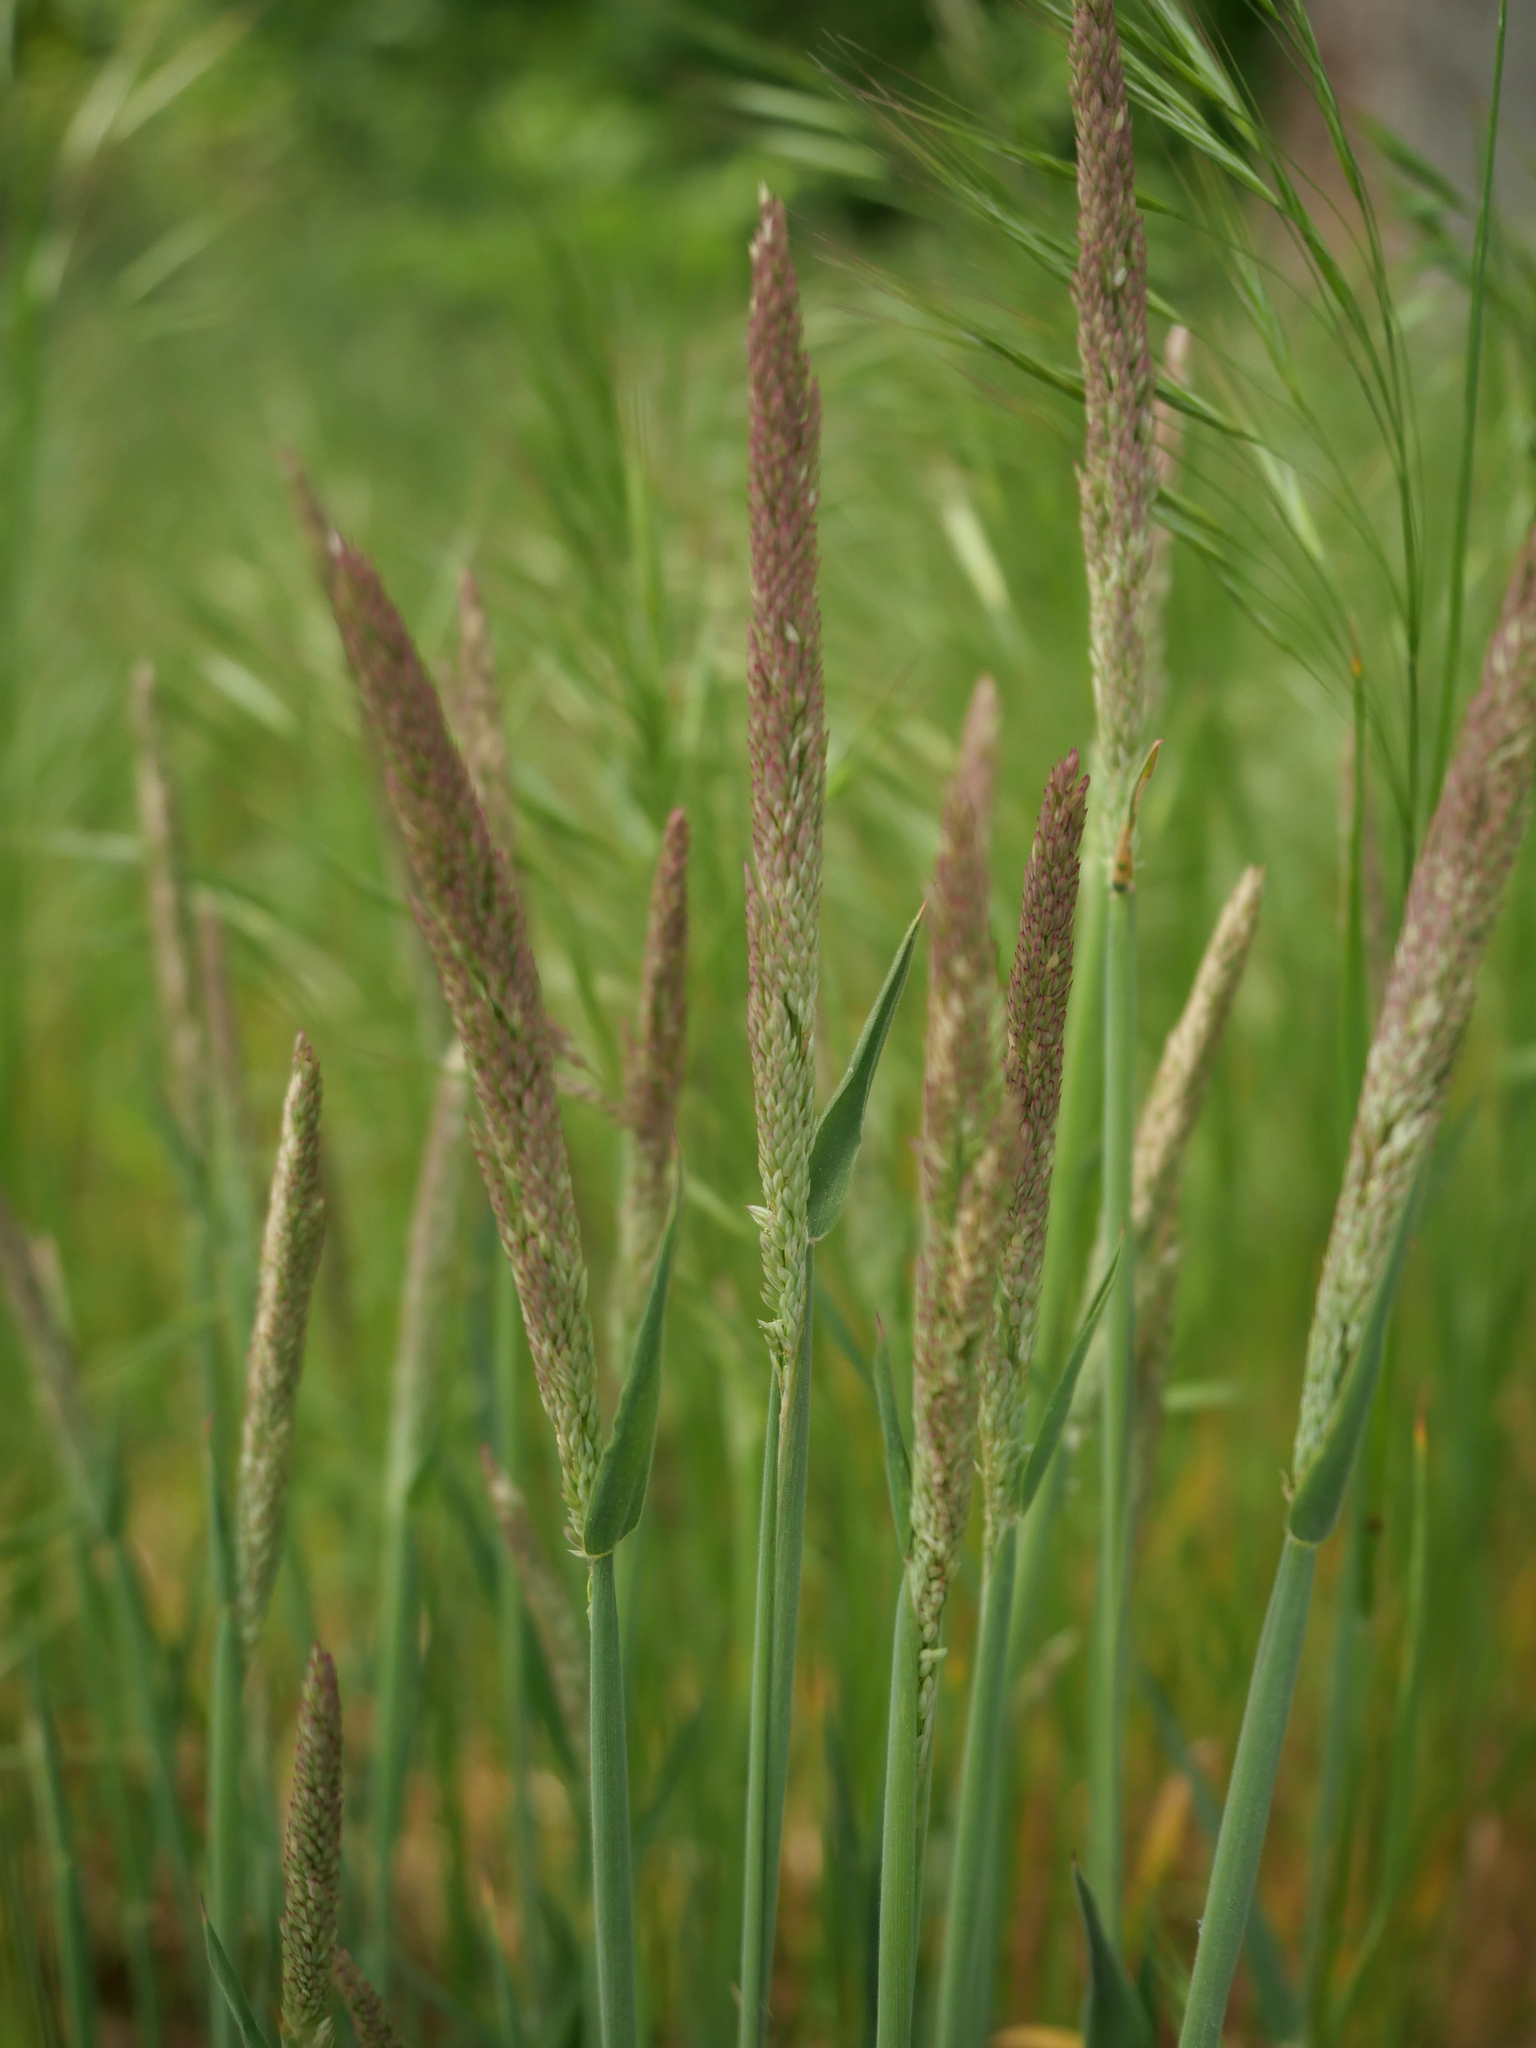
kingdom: Plantae
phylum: Tracheophyta
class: Liliopsida
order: Poales
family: Poaceae
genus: Holcus
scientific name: Holcus lanatus
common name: Yorkshire-fog
